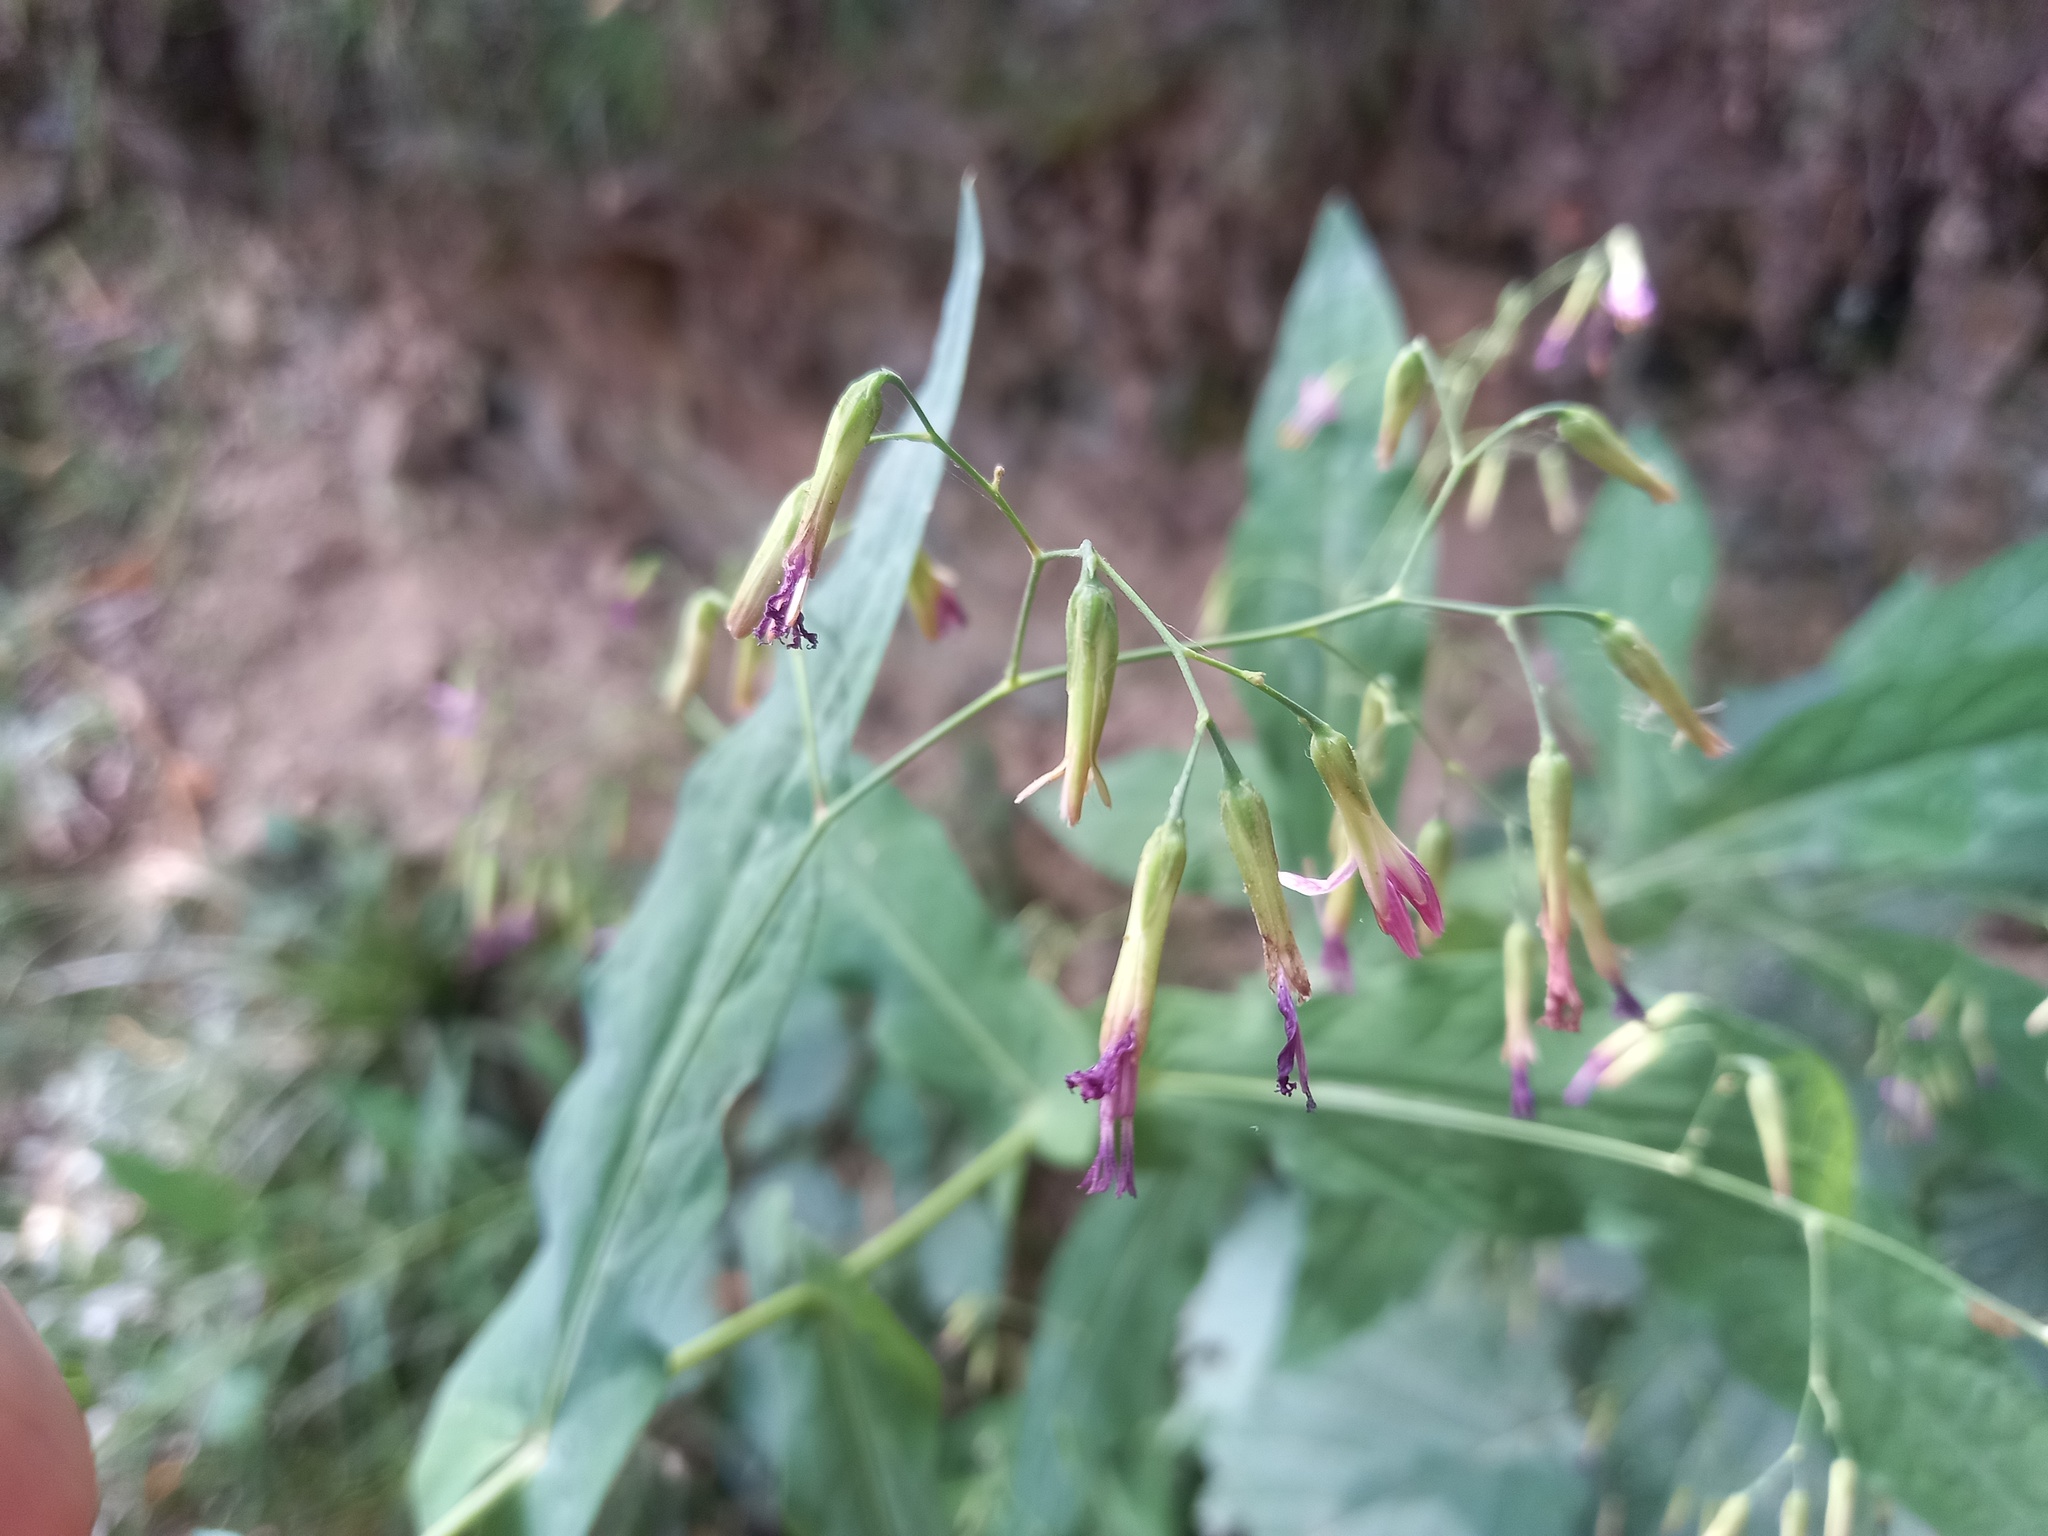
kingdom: Plantae
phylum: Tracheophyta
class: Magnoliopsida
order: Asterales
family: Asteraceae
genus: Prenanthes
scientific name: Prenanthes purpurea
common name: Purple lettuce
